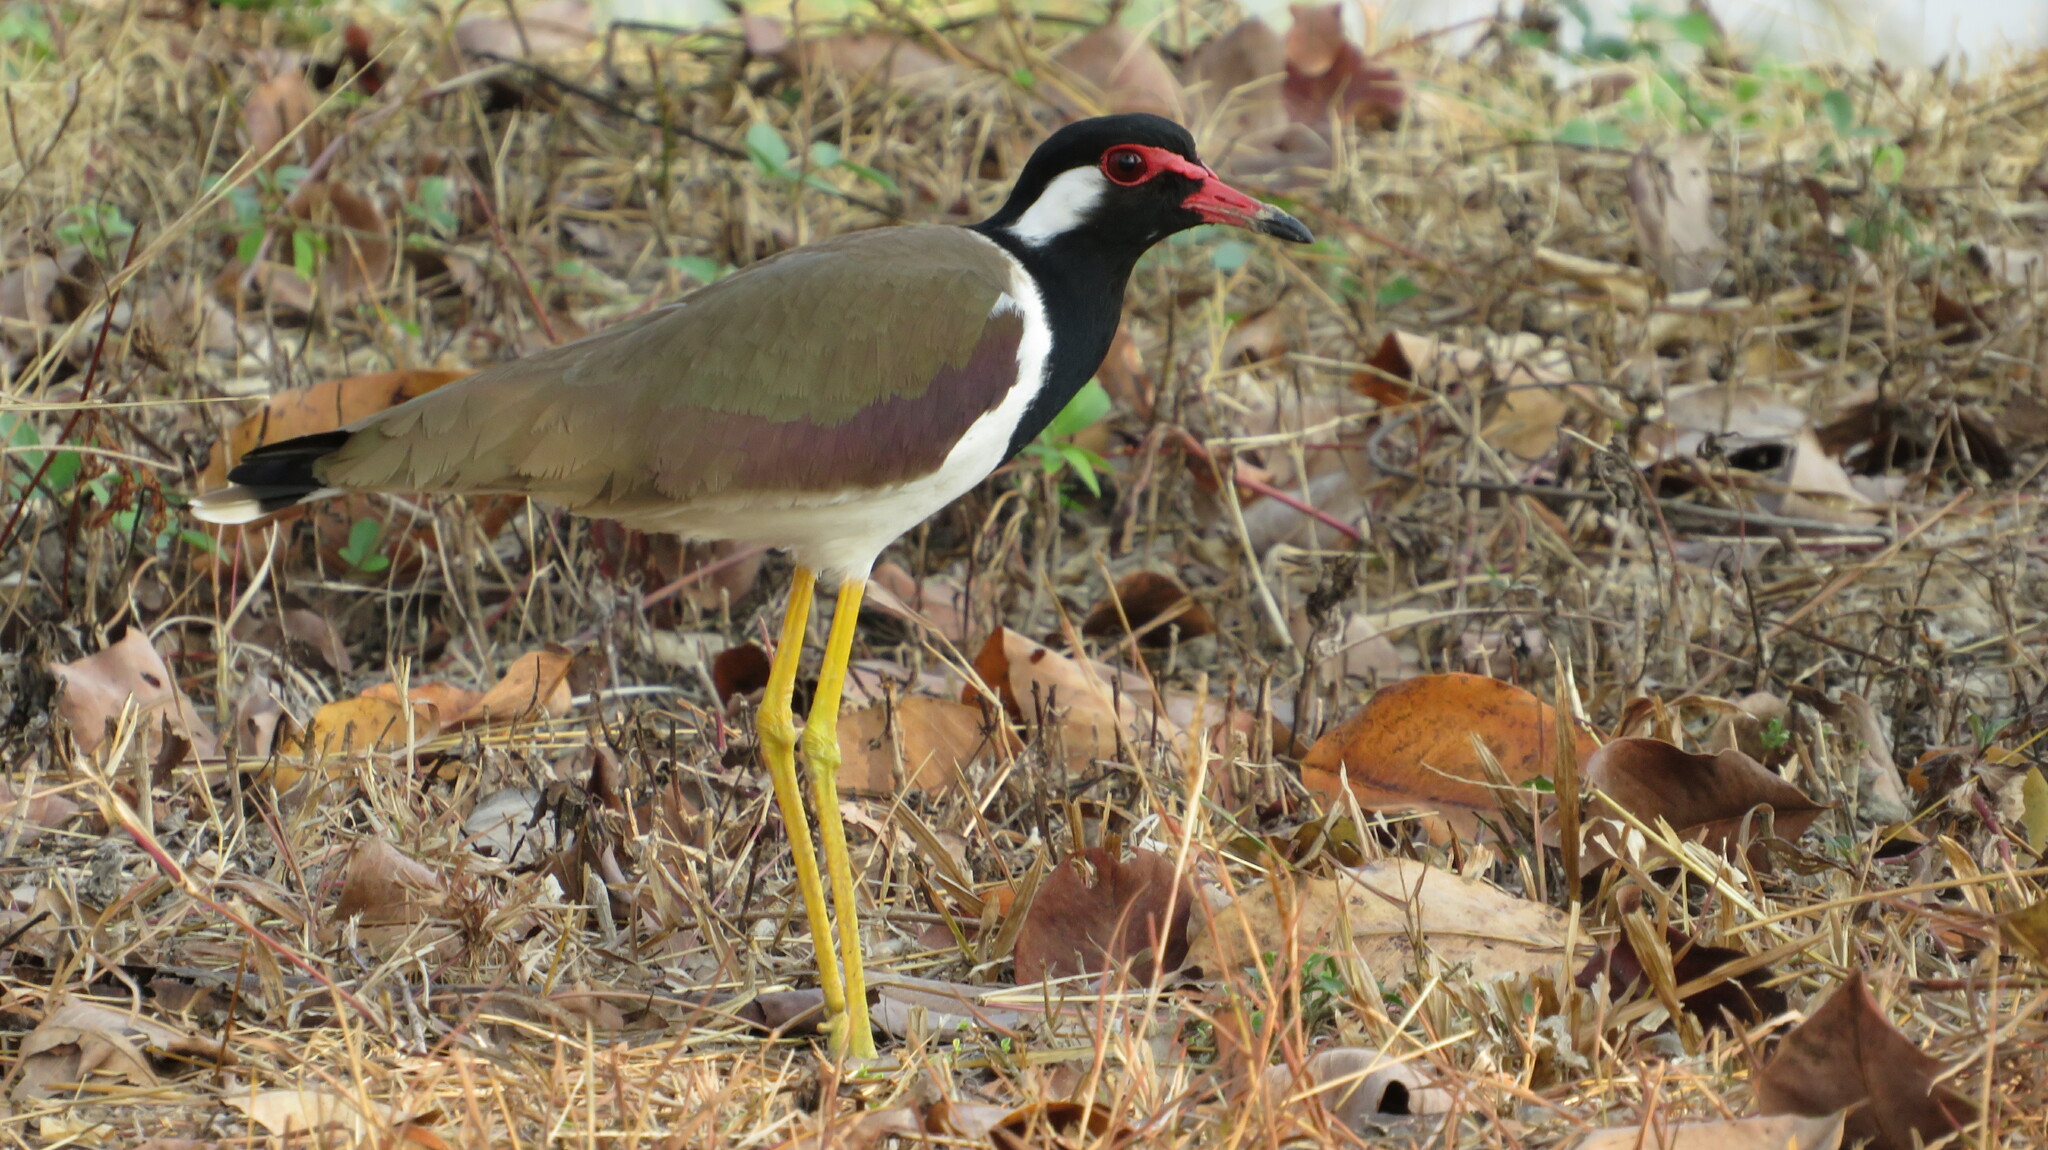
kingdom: Animalia
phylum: Chordata
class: Aves
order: Charadriiformes
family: Charadriidae
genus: Vanellus
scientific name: Vanellus indicus
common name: Red-wattled lapwing
